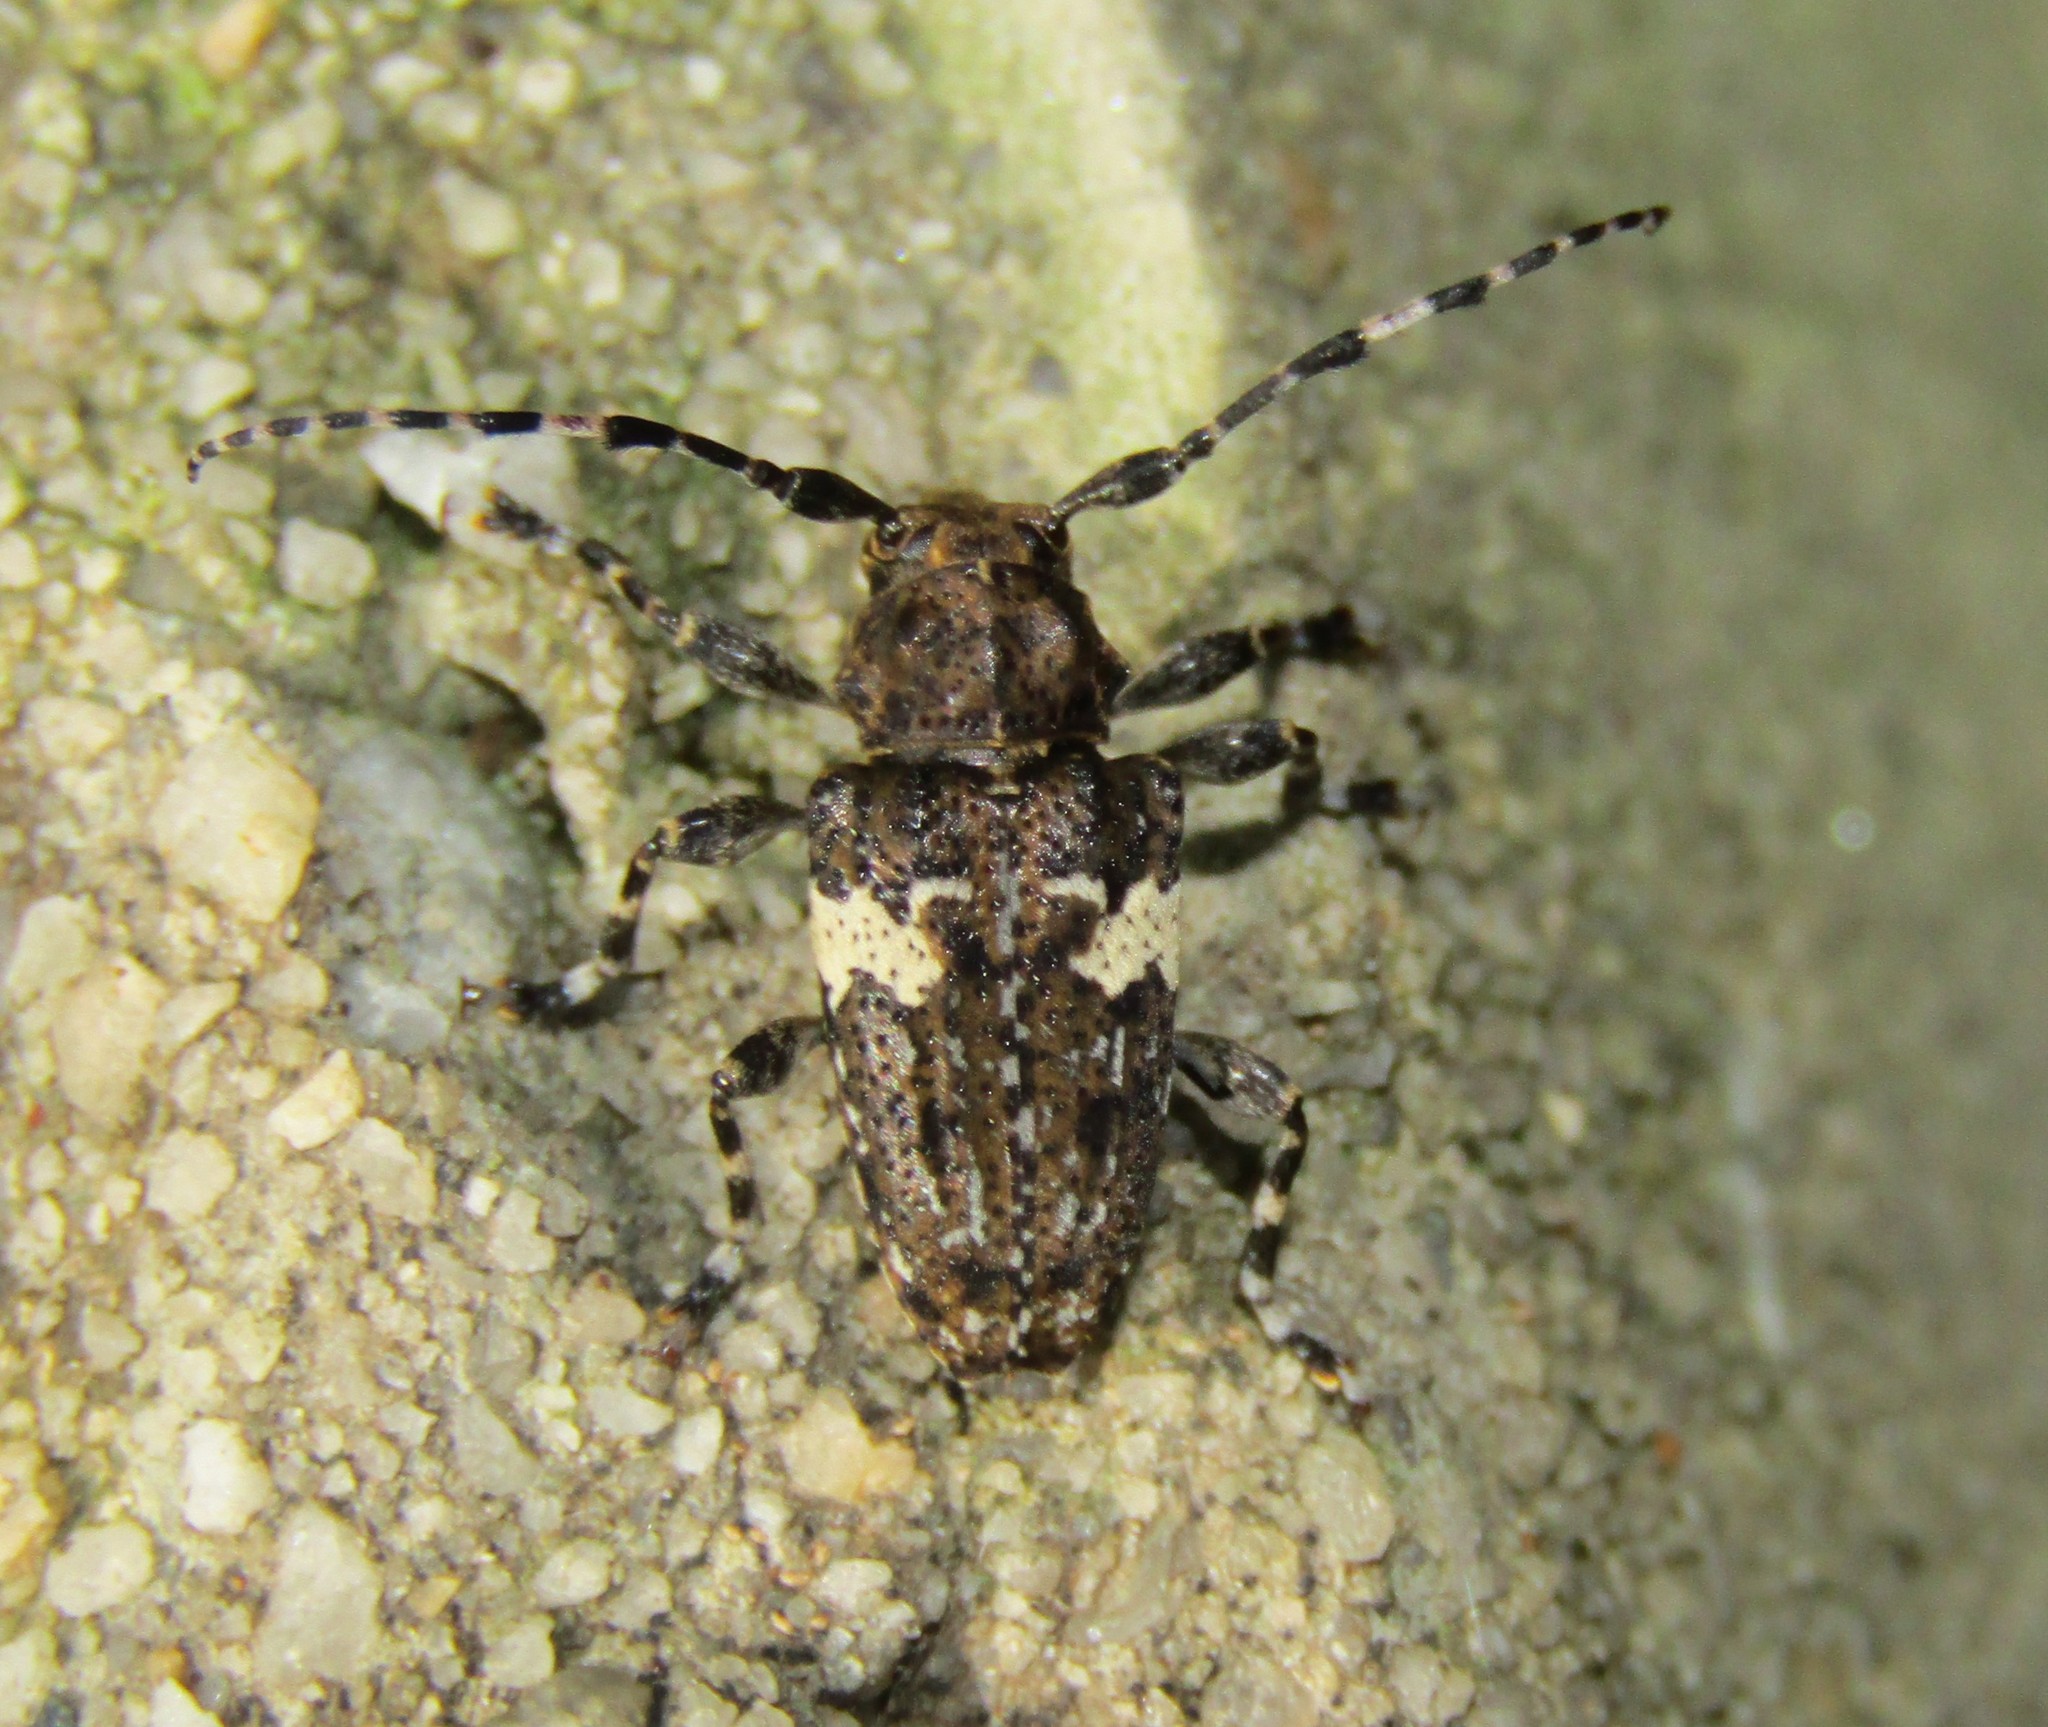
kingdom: Animalia
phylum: Arthropoda
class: Insecta
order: Coleoptera
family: Cerambycidae
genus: Acanthoderes
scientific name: Acanthoderes quadrigibba
